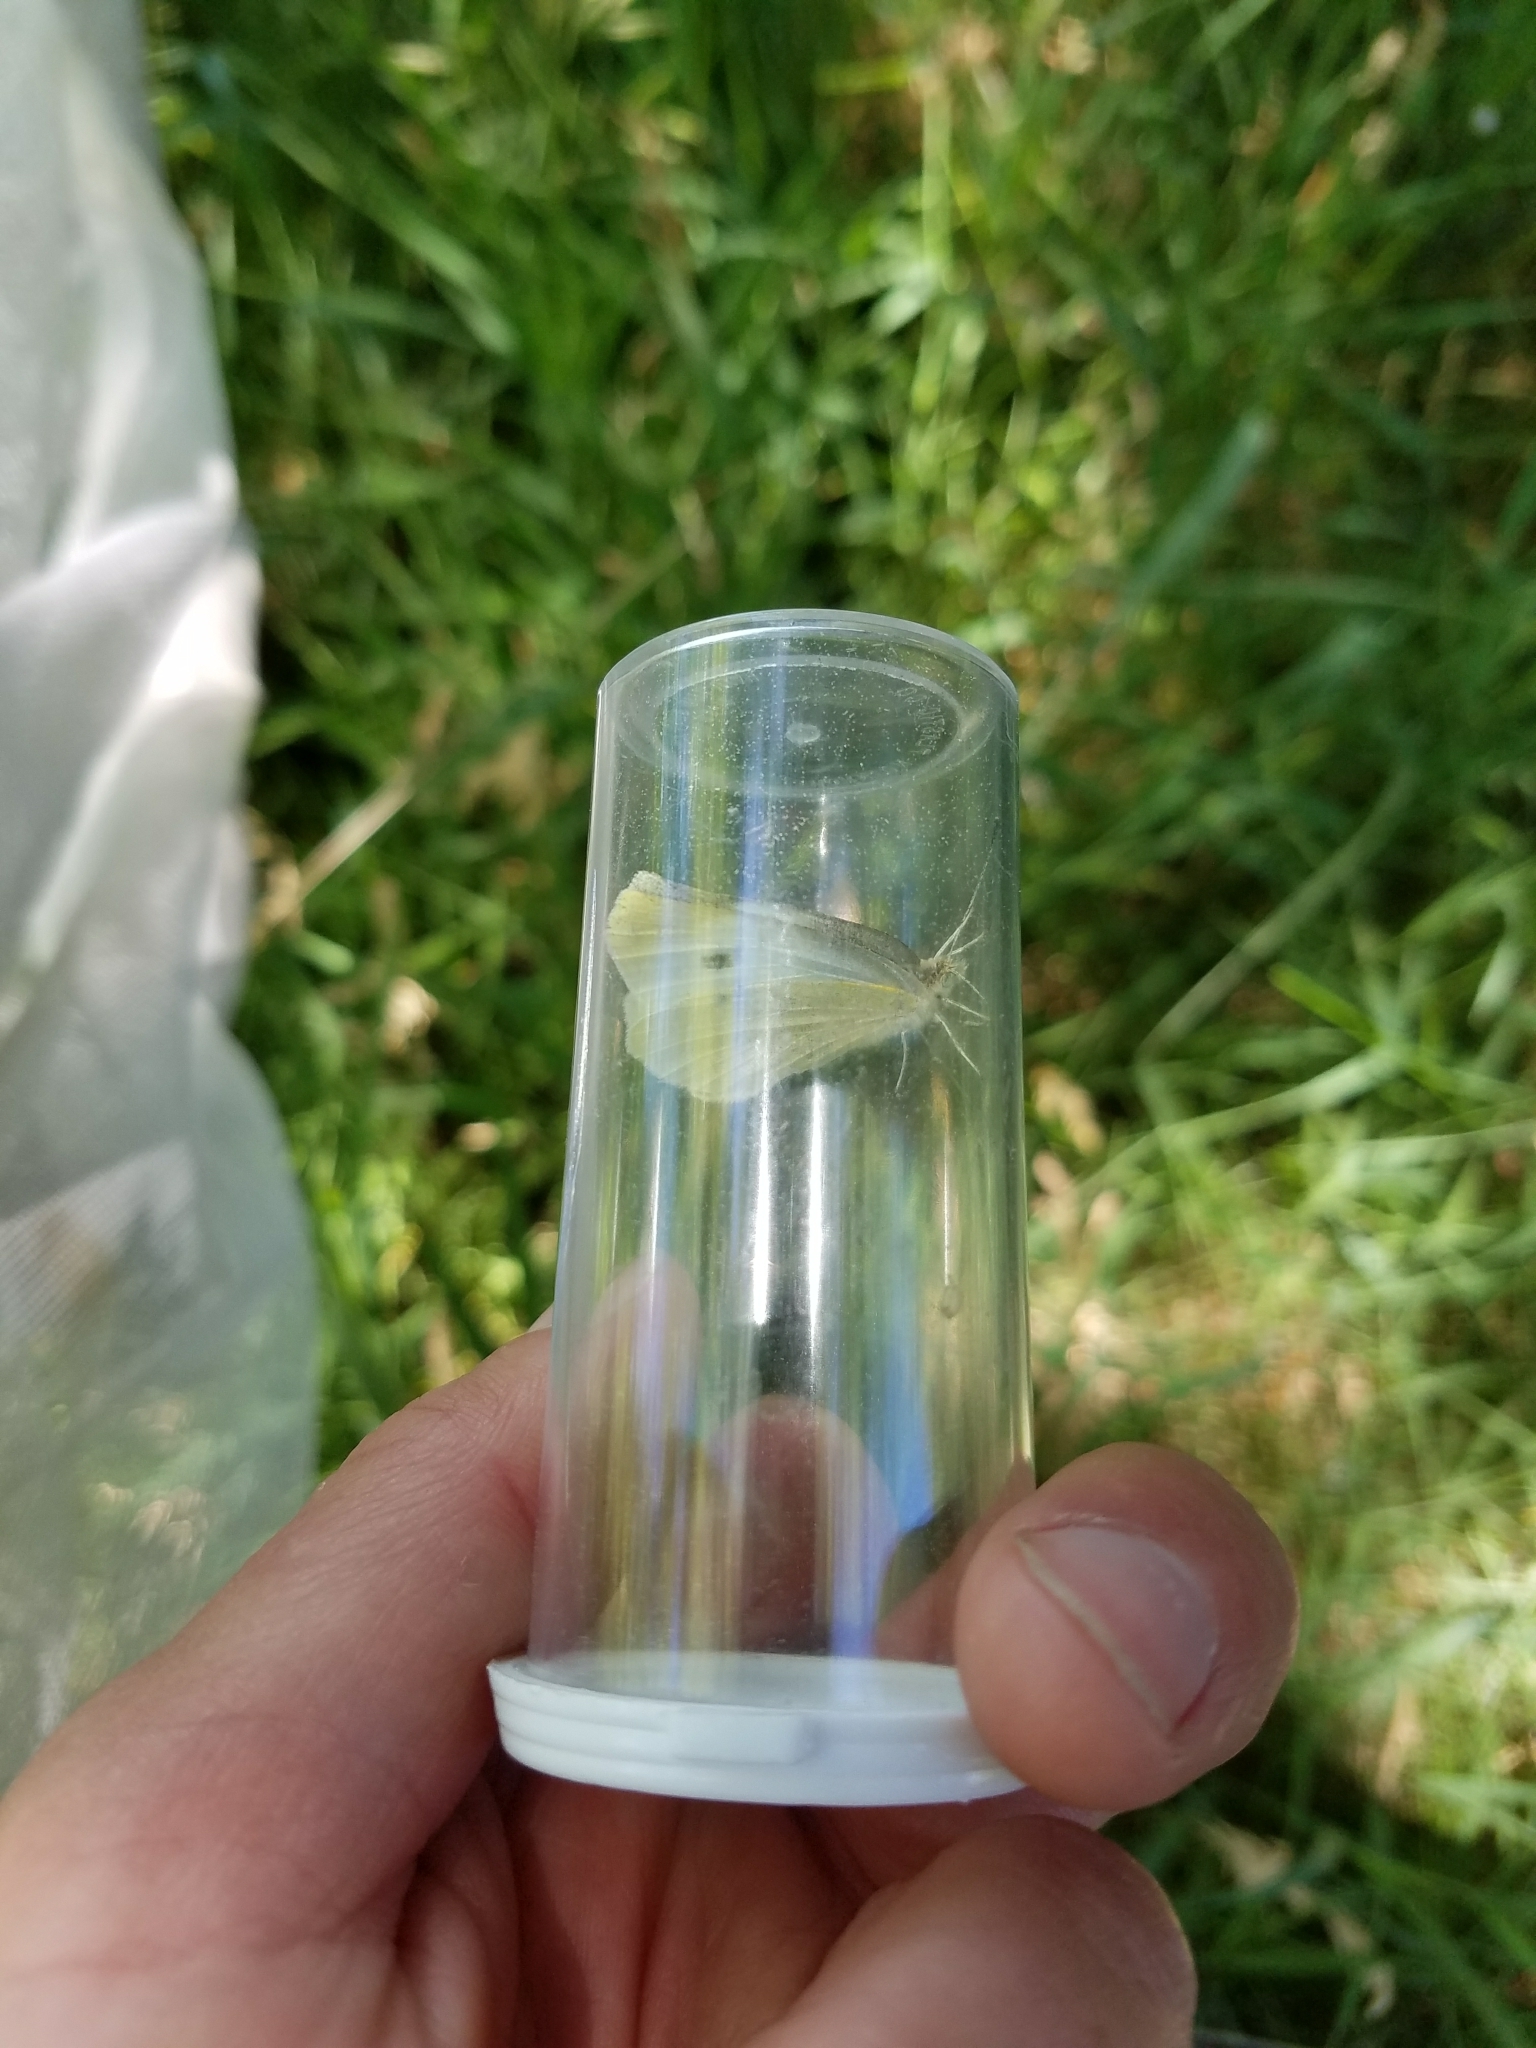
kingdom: Animalia
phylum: Arthropoda
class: Insecta
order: Lepidoptera
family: Pieridae
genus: Pieris
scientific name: Pieris rapae
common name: Small white
